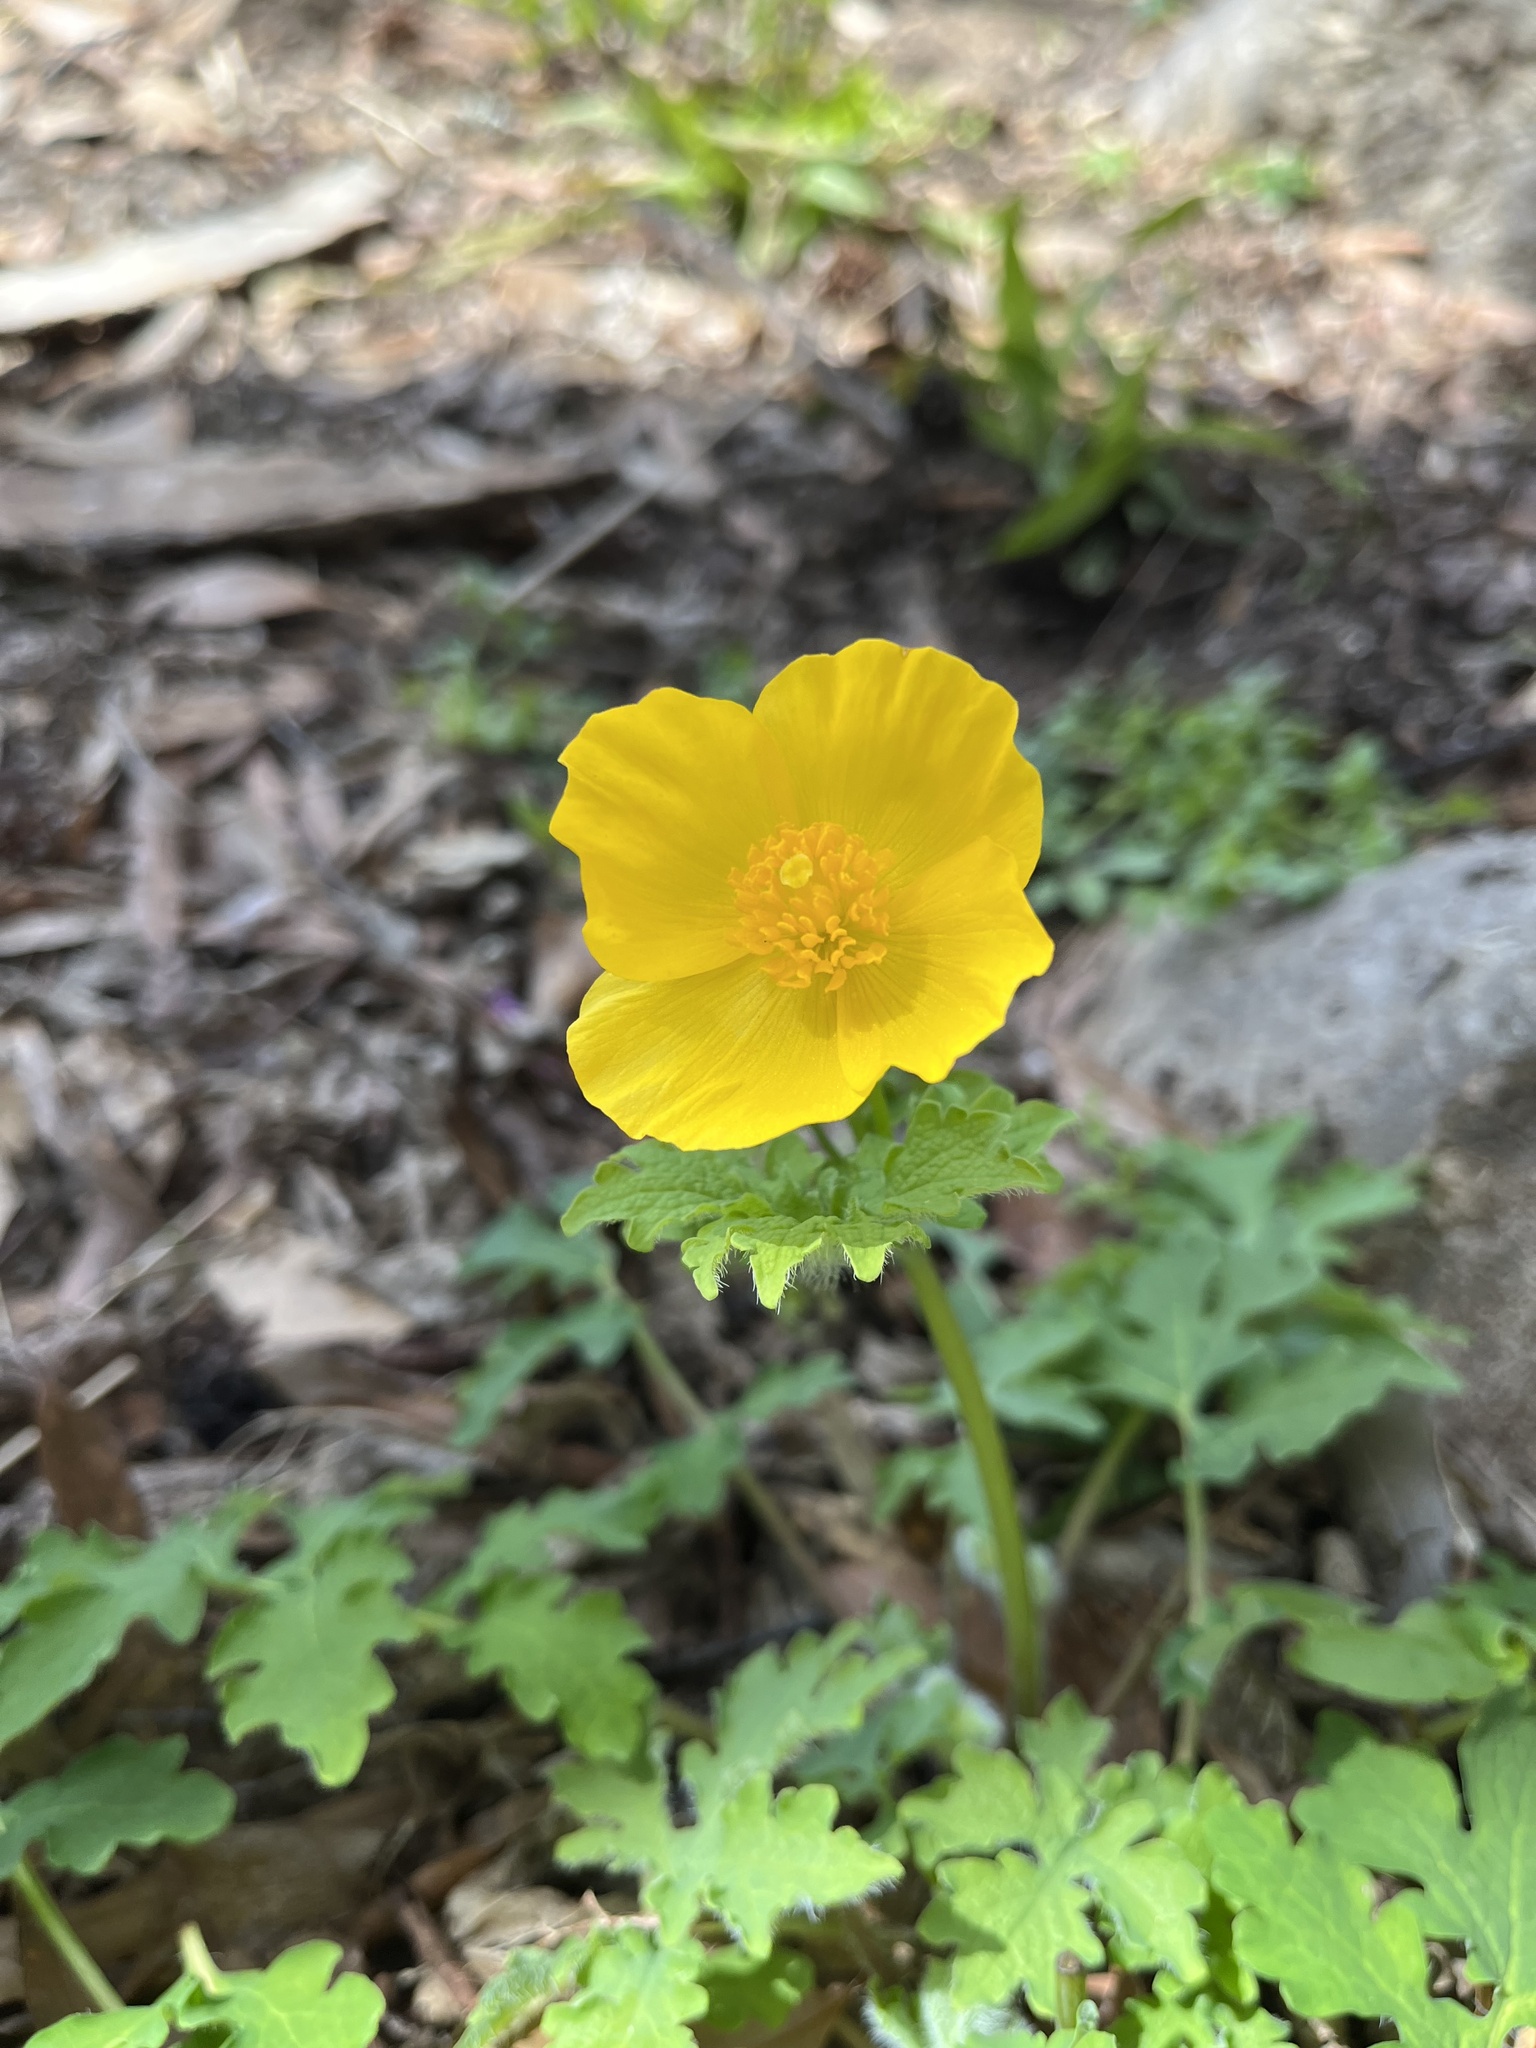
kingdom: Plantae
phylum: Tracheophyta
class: Magnoliopsida
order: Ranunculales
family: Papaveraceae
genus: Stylophorum
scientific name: Stylophorum diphyllum
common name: Celandine poppy
